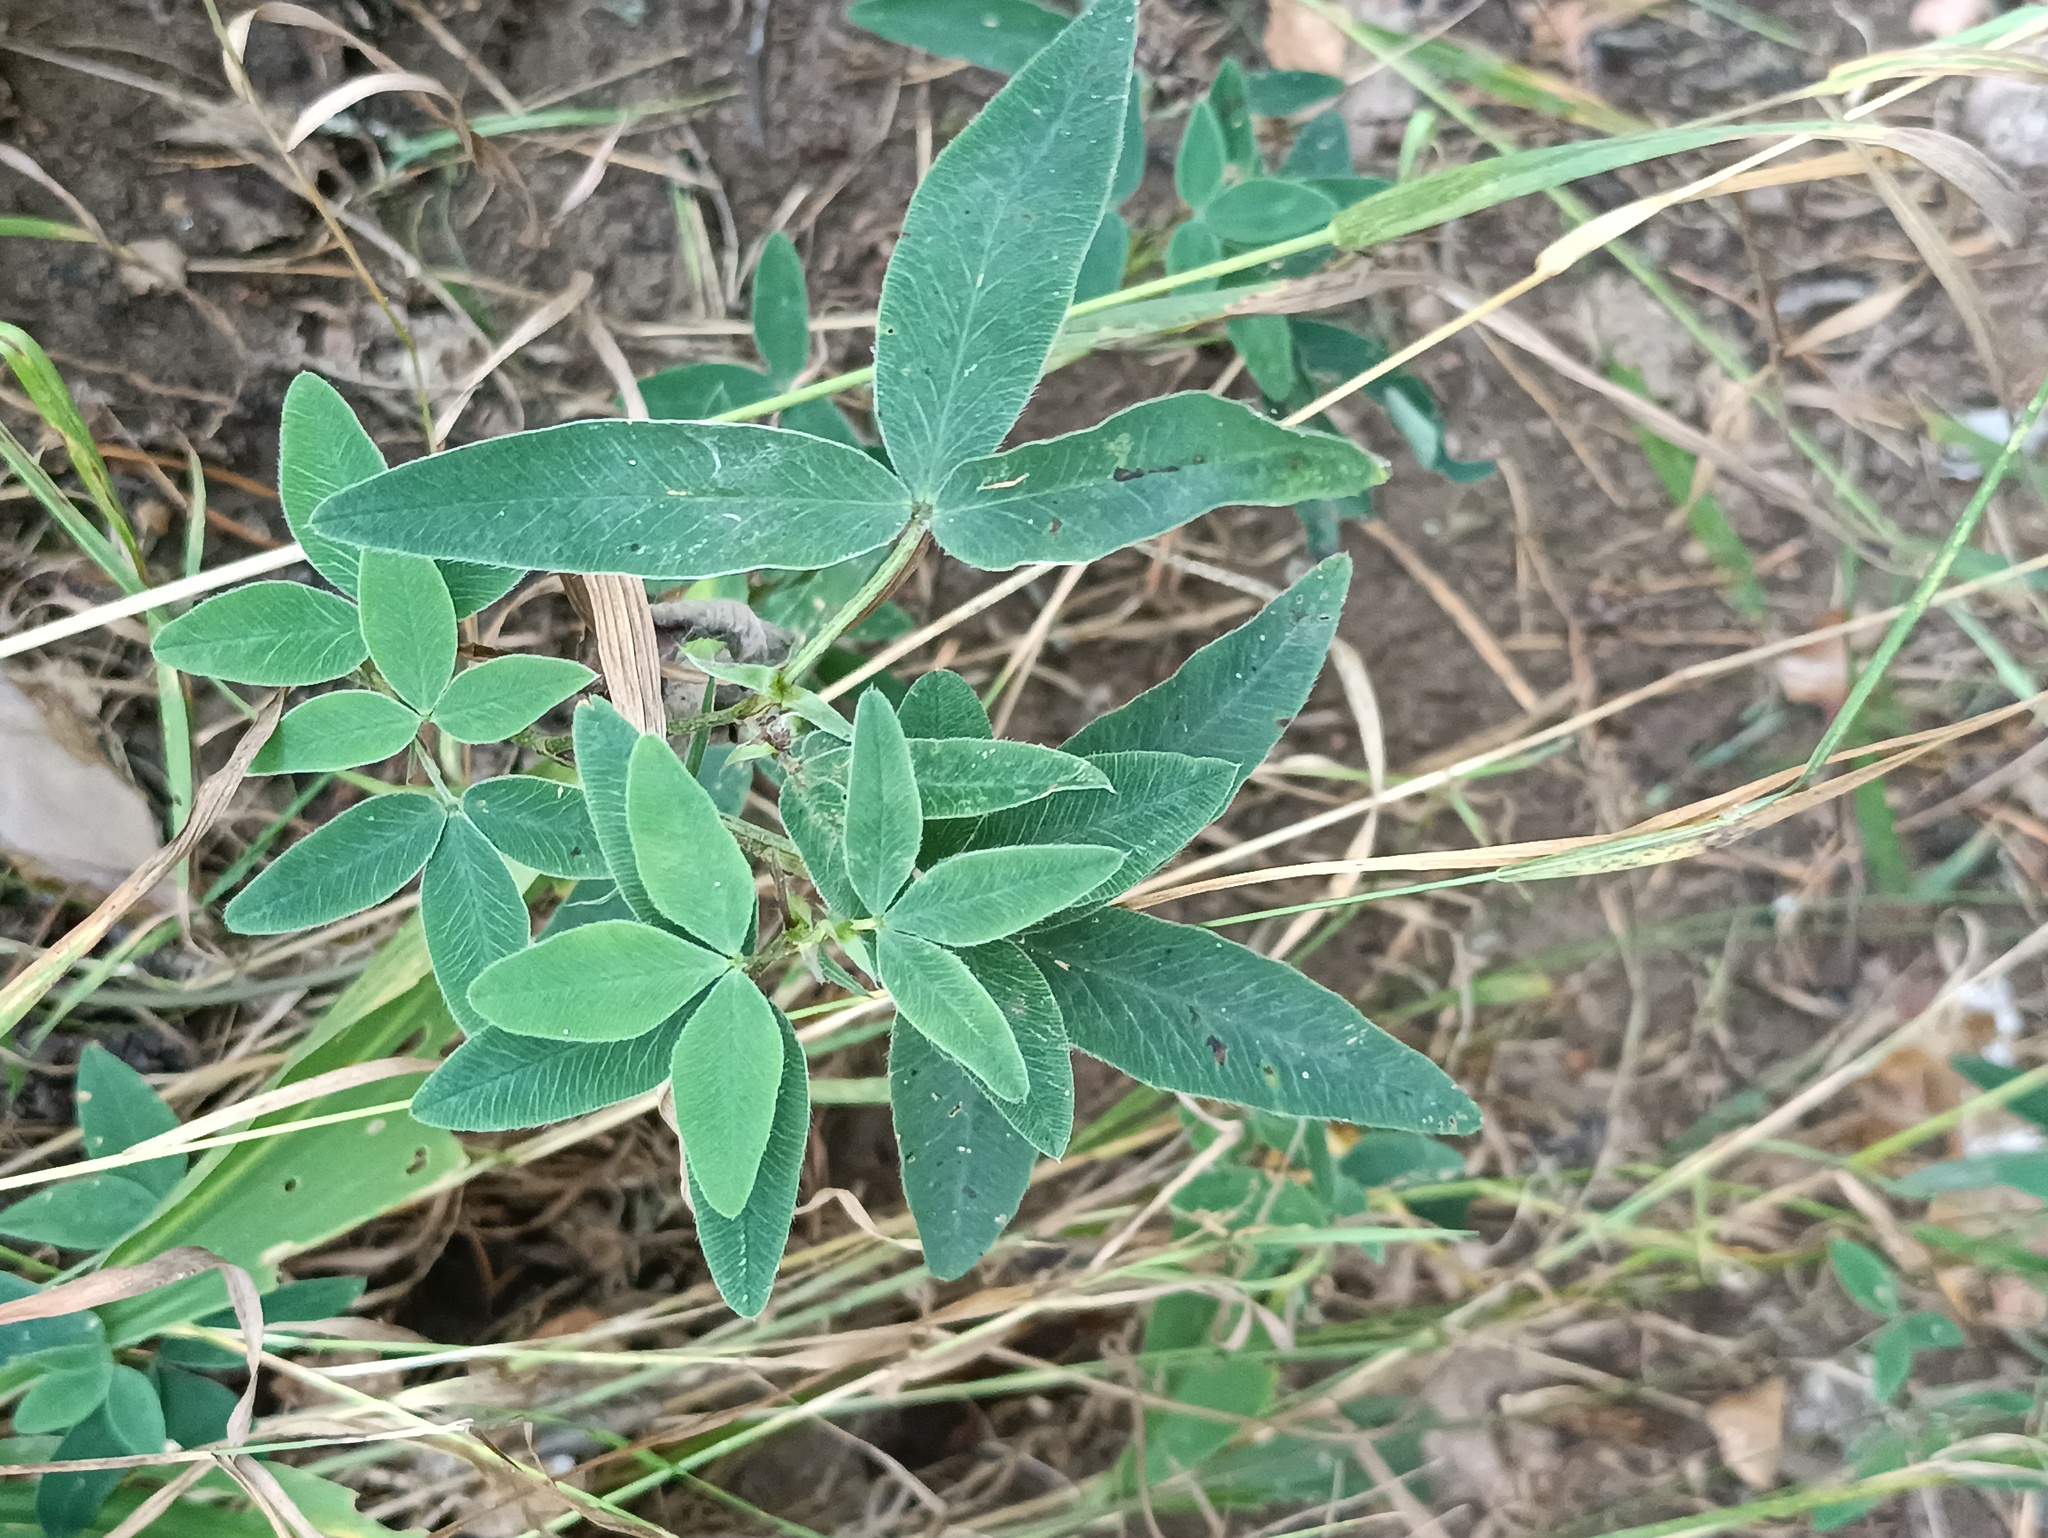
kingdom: Plantae
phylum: Tracheophyta
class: Magnoliopsida
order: Fabales
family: Fabaceae
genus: Trifolium
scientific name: Trifolium medium
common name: Zigzag clover
